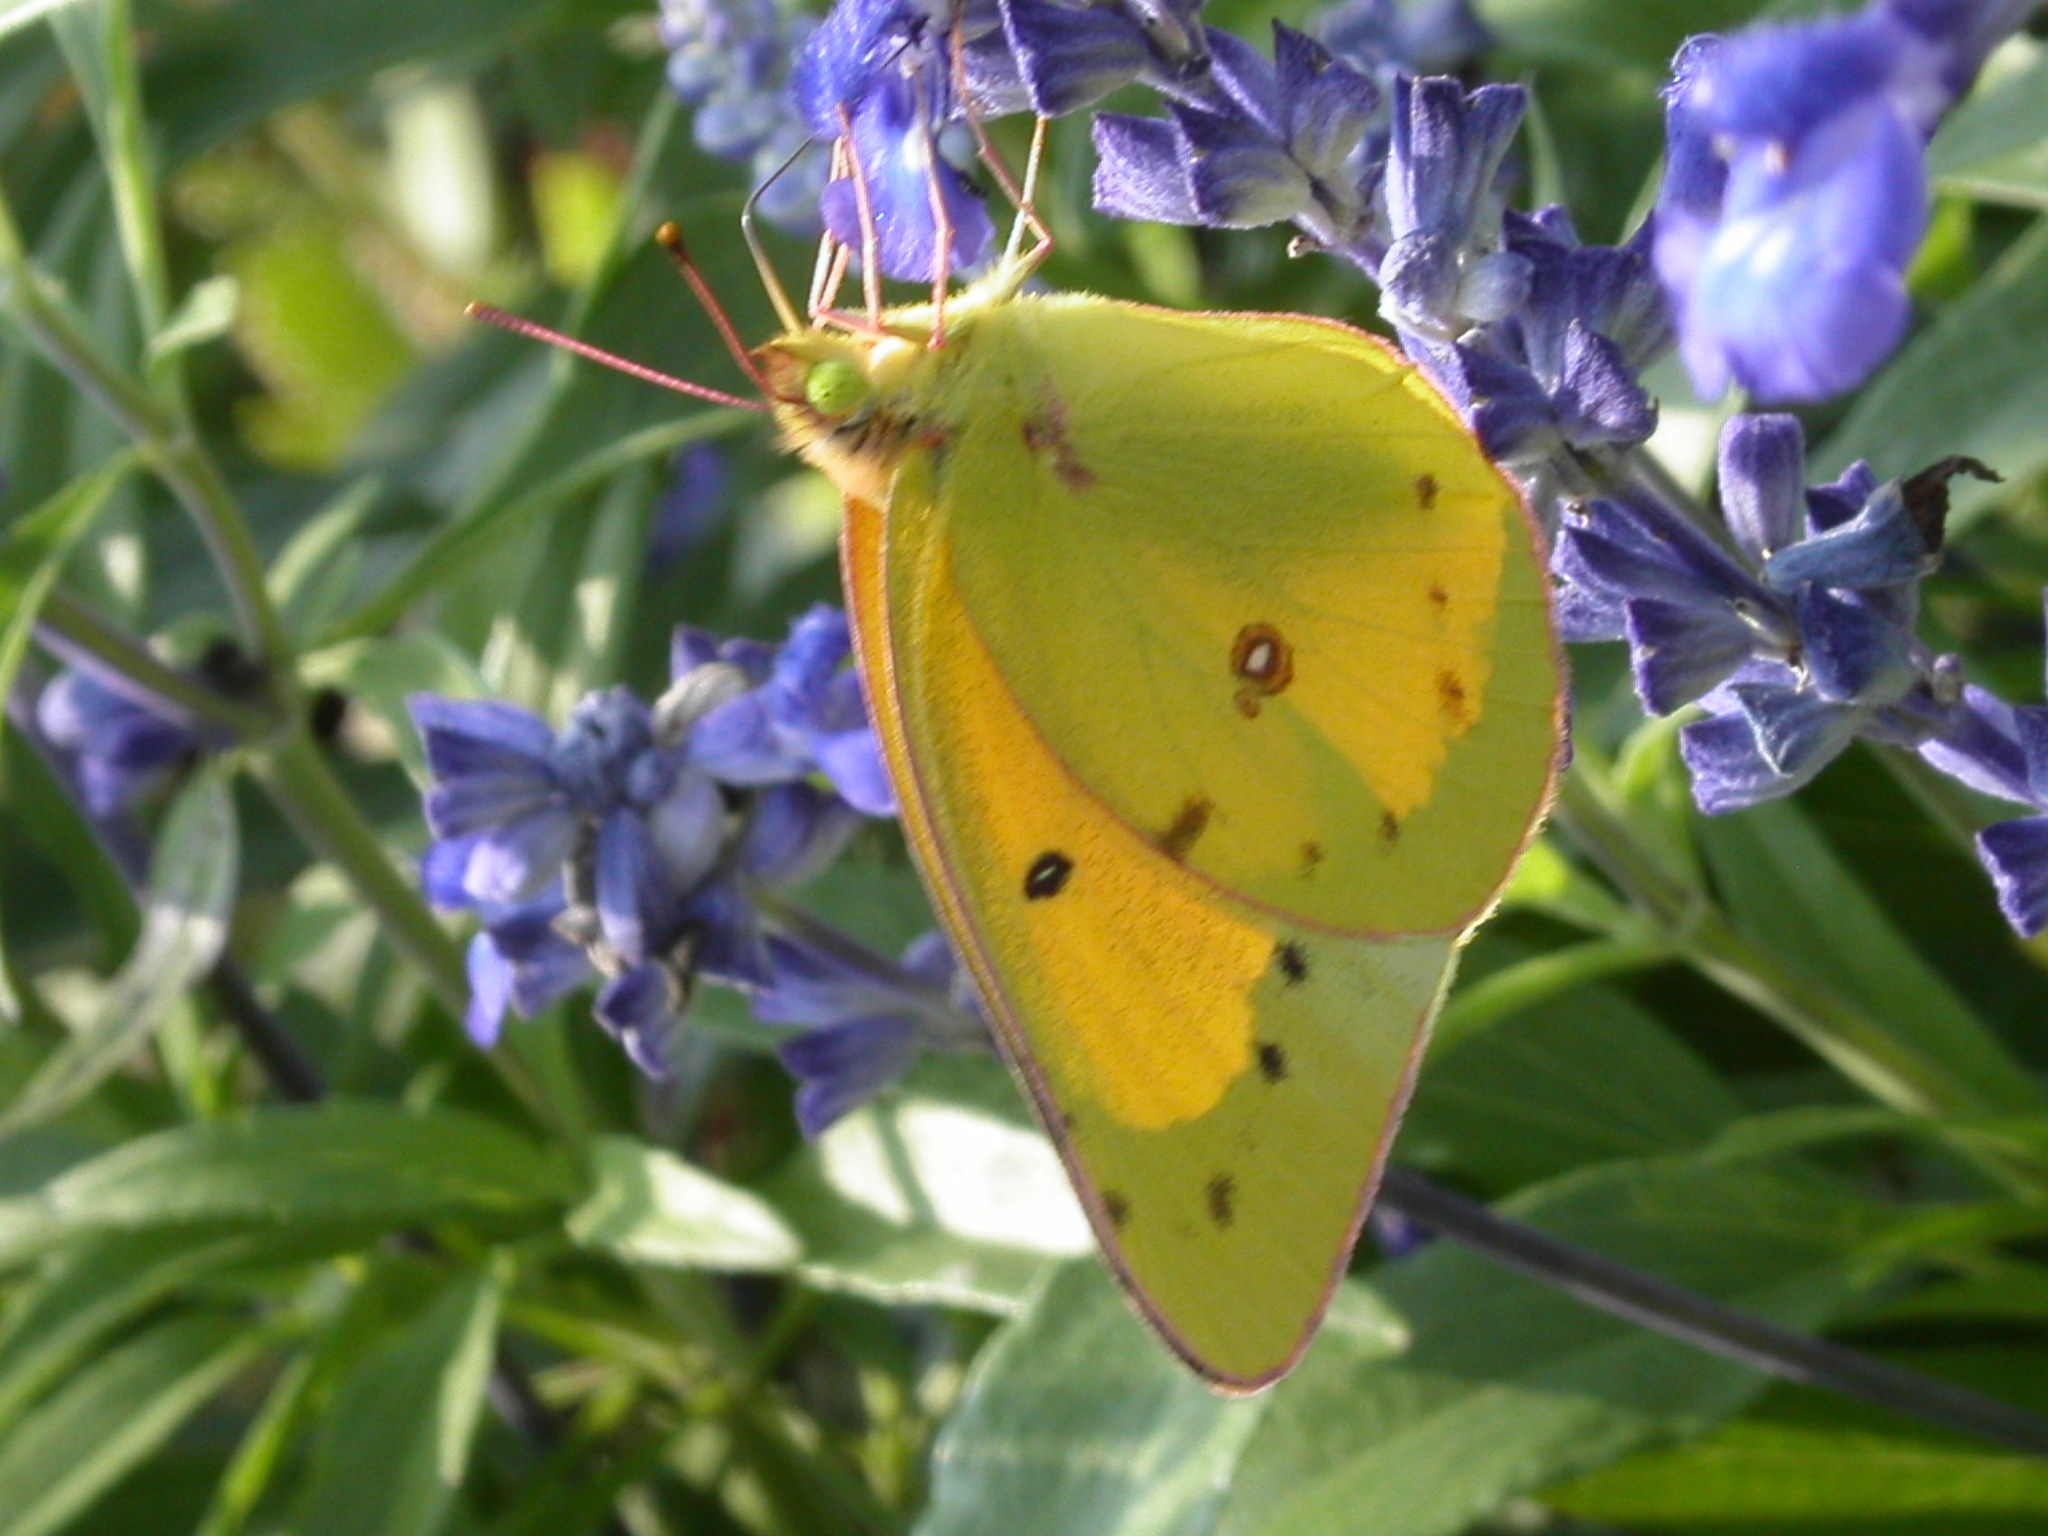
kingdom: Animalia
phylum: Arthropoda
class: Insecta
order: Lepidoptera
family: Pieridae
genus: Colias
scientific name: Colias eurytheme
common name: Alfalfa butterfly
